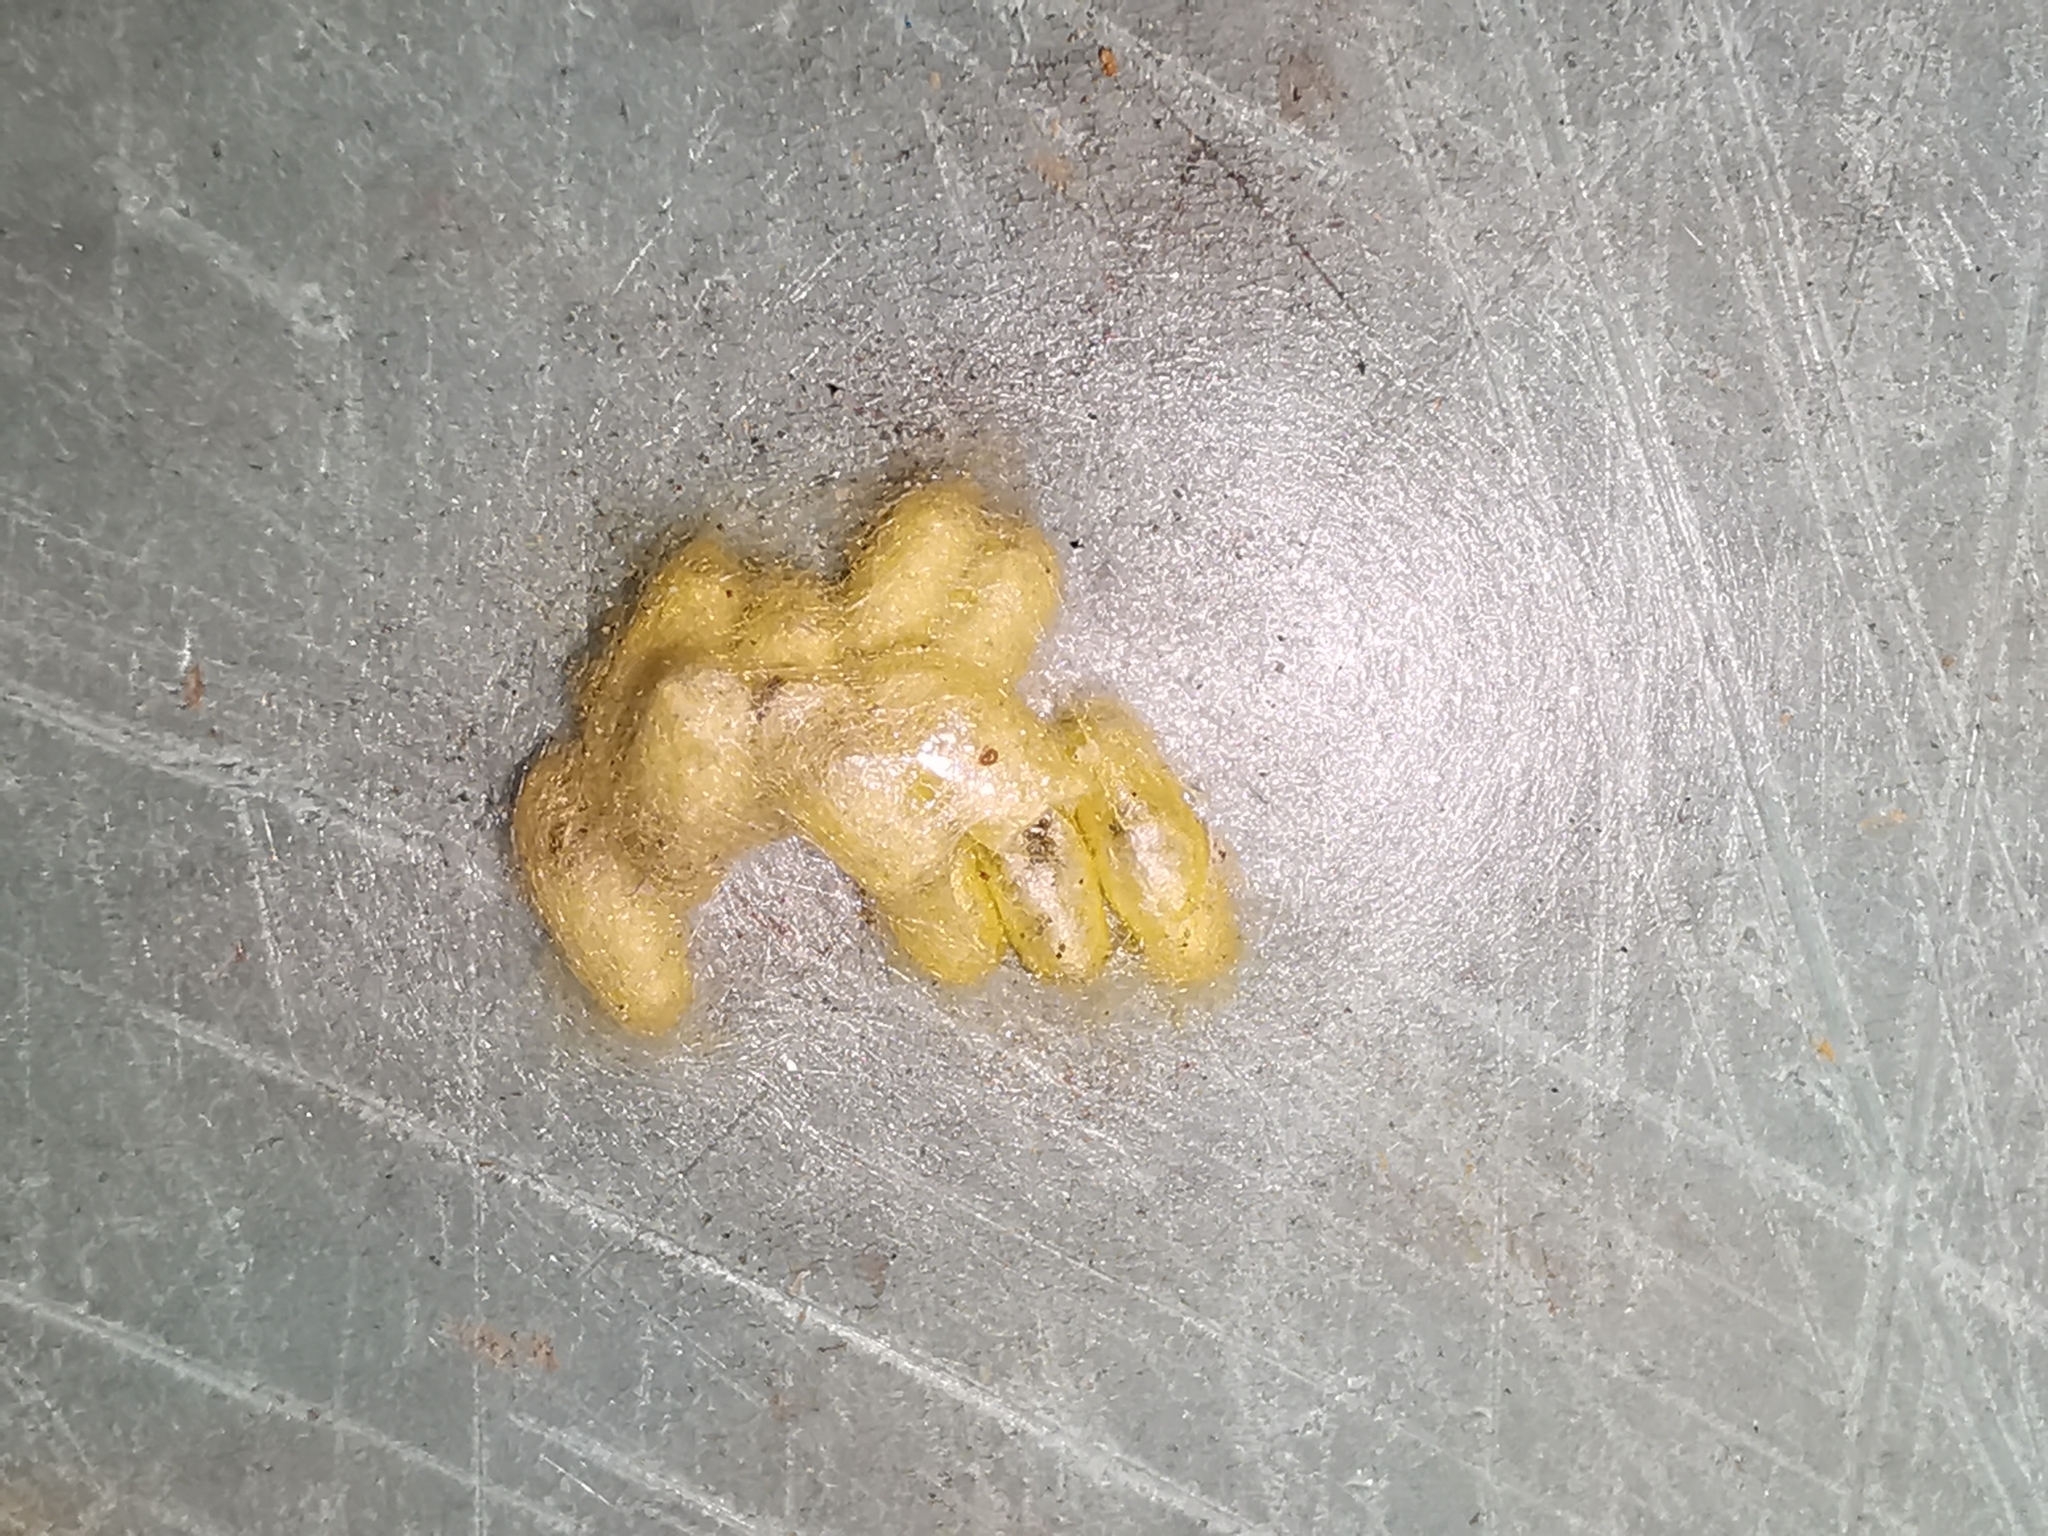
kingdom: Animalia
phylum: Arthropoda
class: Insecta
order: Hymenoptera
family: Braconidae
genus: Cotesia
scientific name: Cotesia glomerata
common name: Parasitoid wasp
